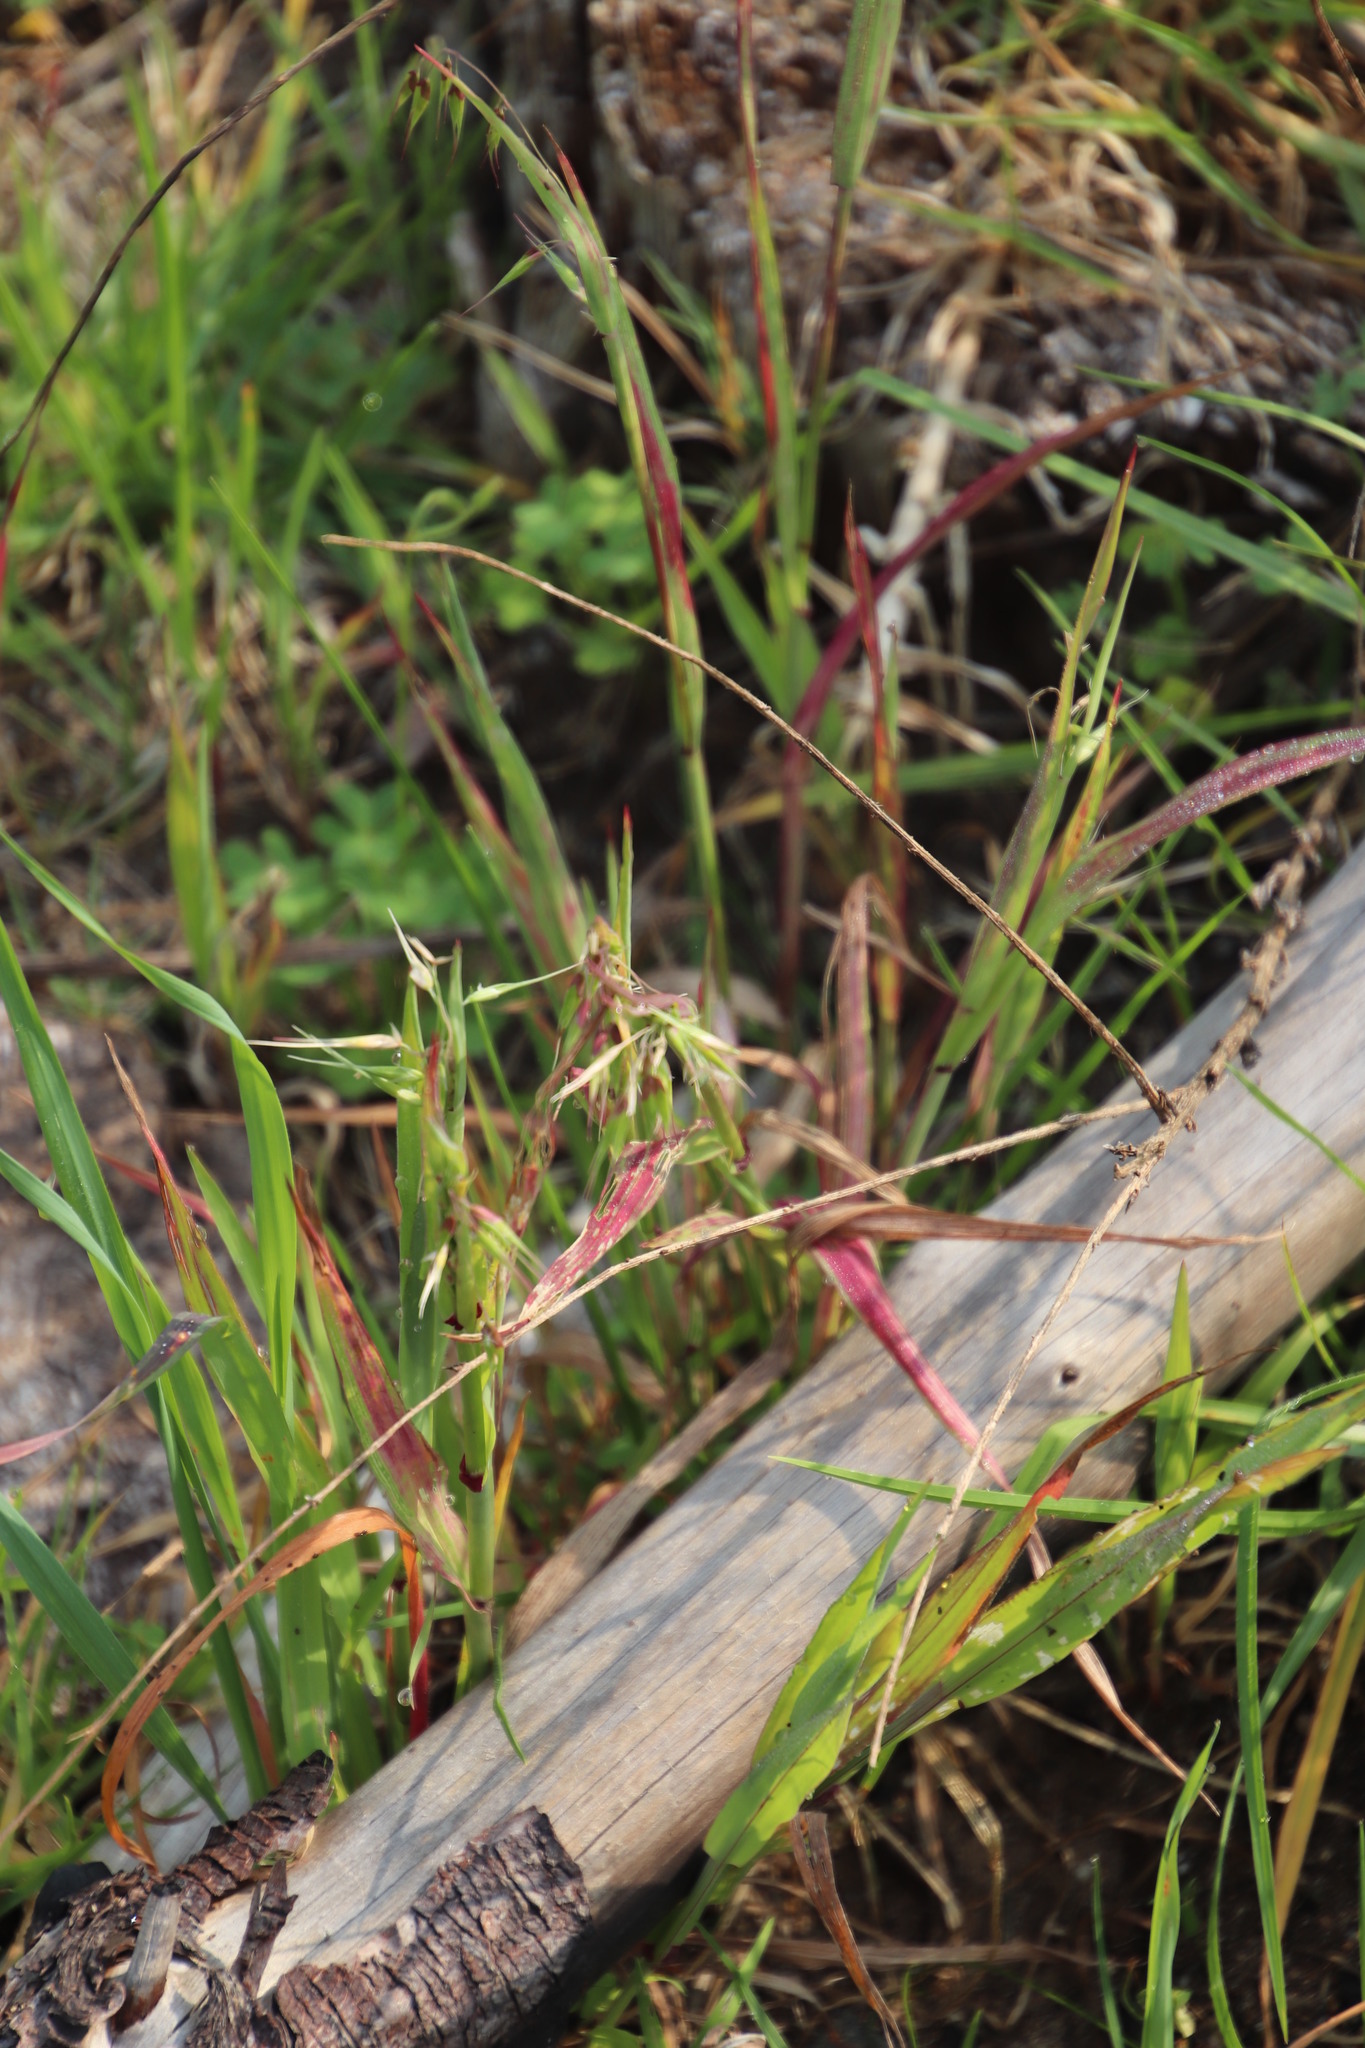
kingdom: Plantae
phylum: Tracheophyta
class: Liliopsida
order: Poales
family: Poaceae
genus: Ehrharta
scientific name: Ehrharta longiflora
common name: Longflowered veldtgrass
